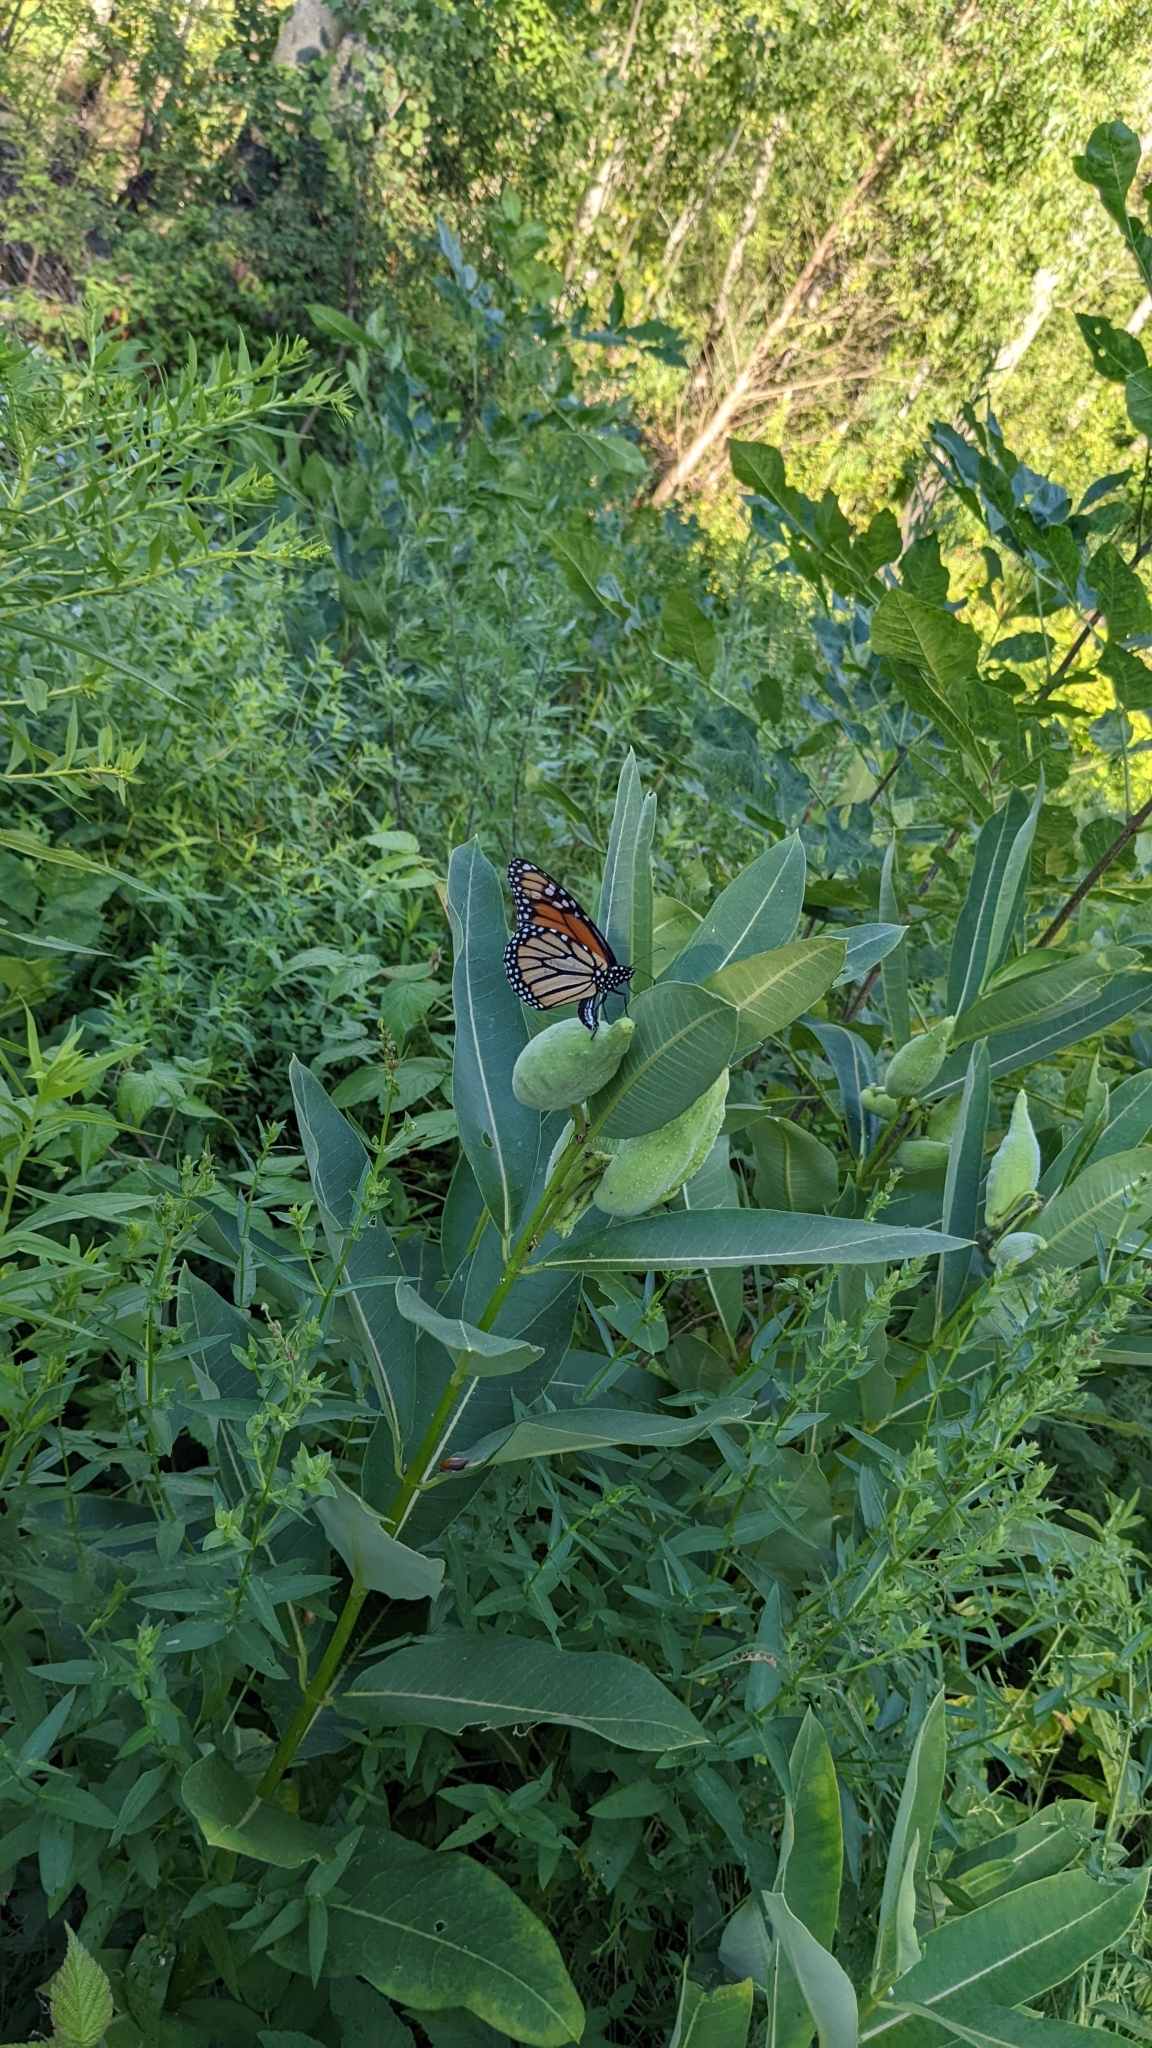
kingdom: Animalia
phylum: Arthropoda
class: Insecta
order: Lepidoptera
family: Nymphalidae
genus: Danaus
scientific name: Danaus plexippus
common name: Monarch
